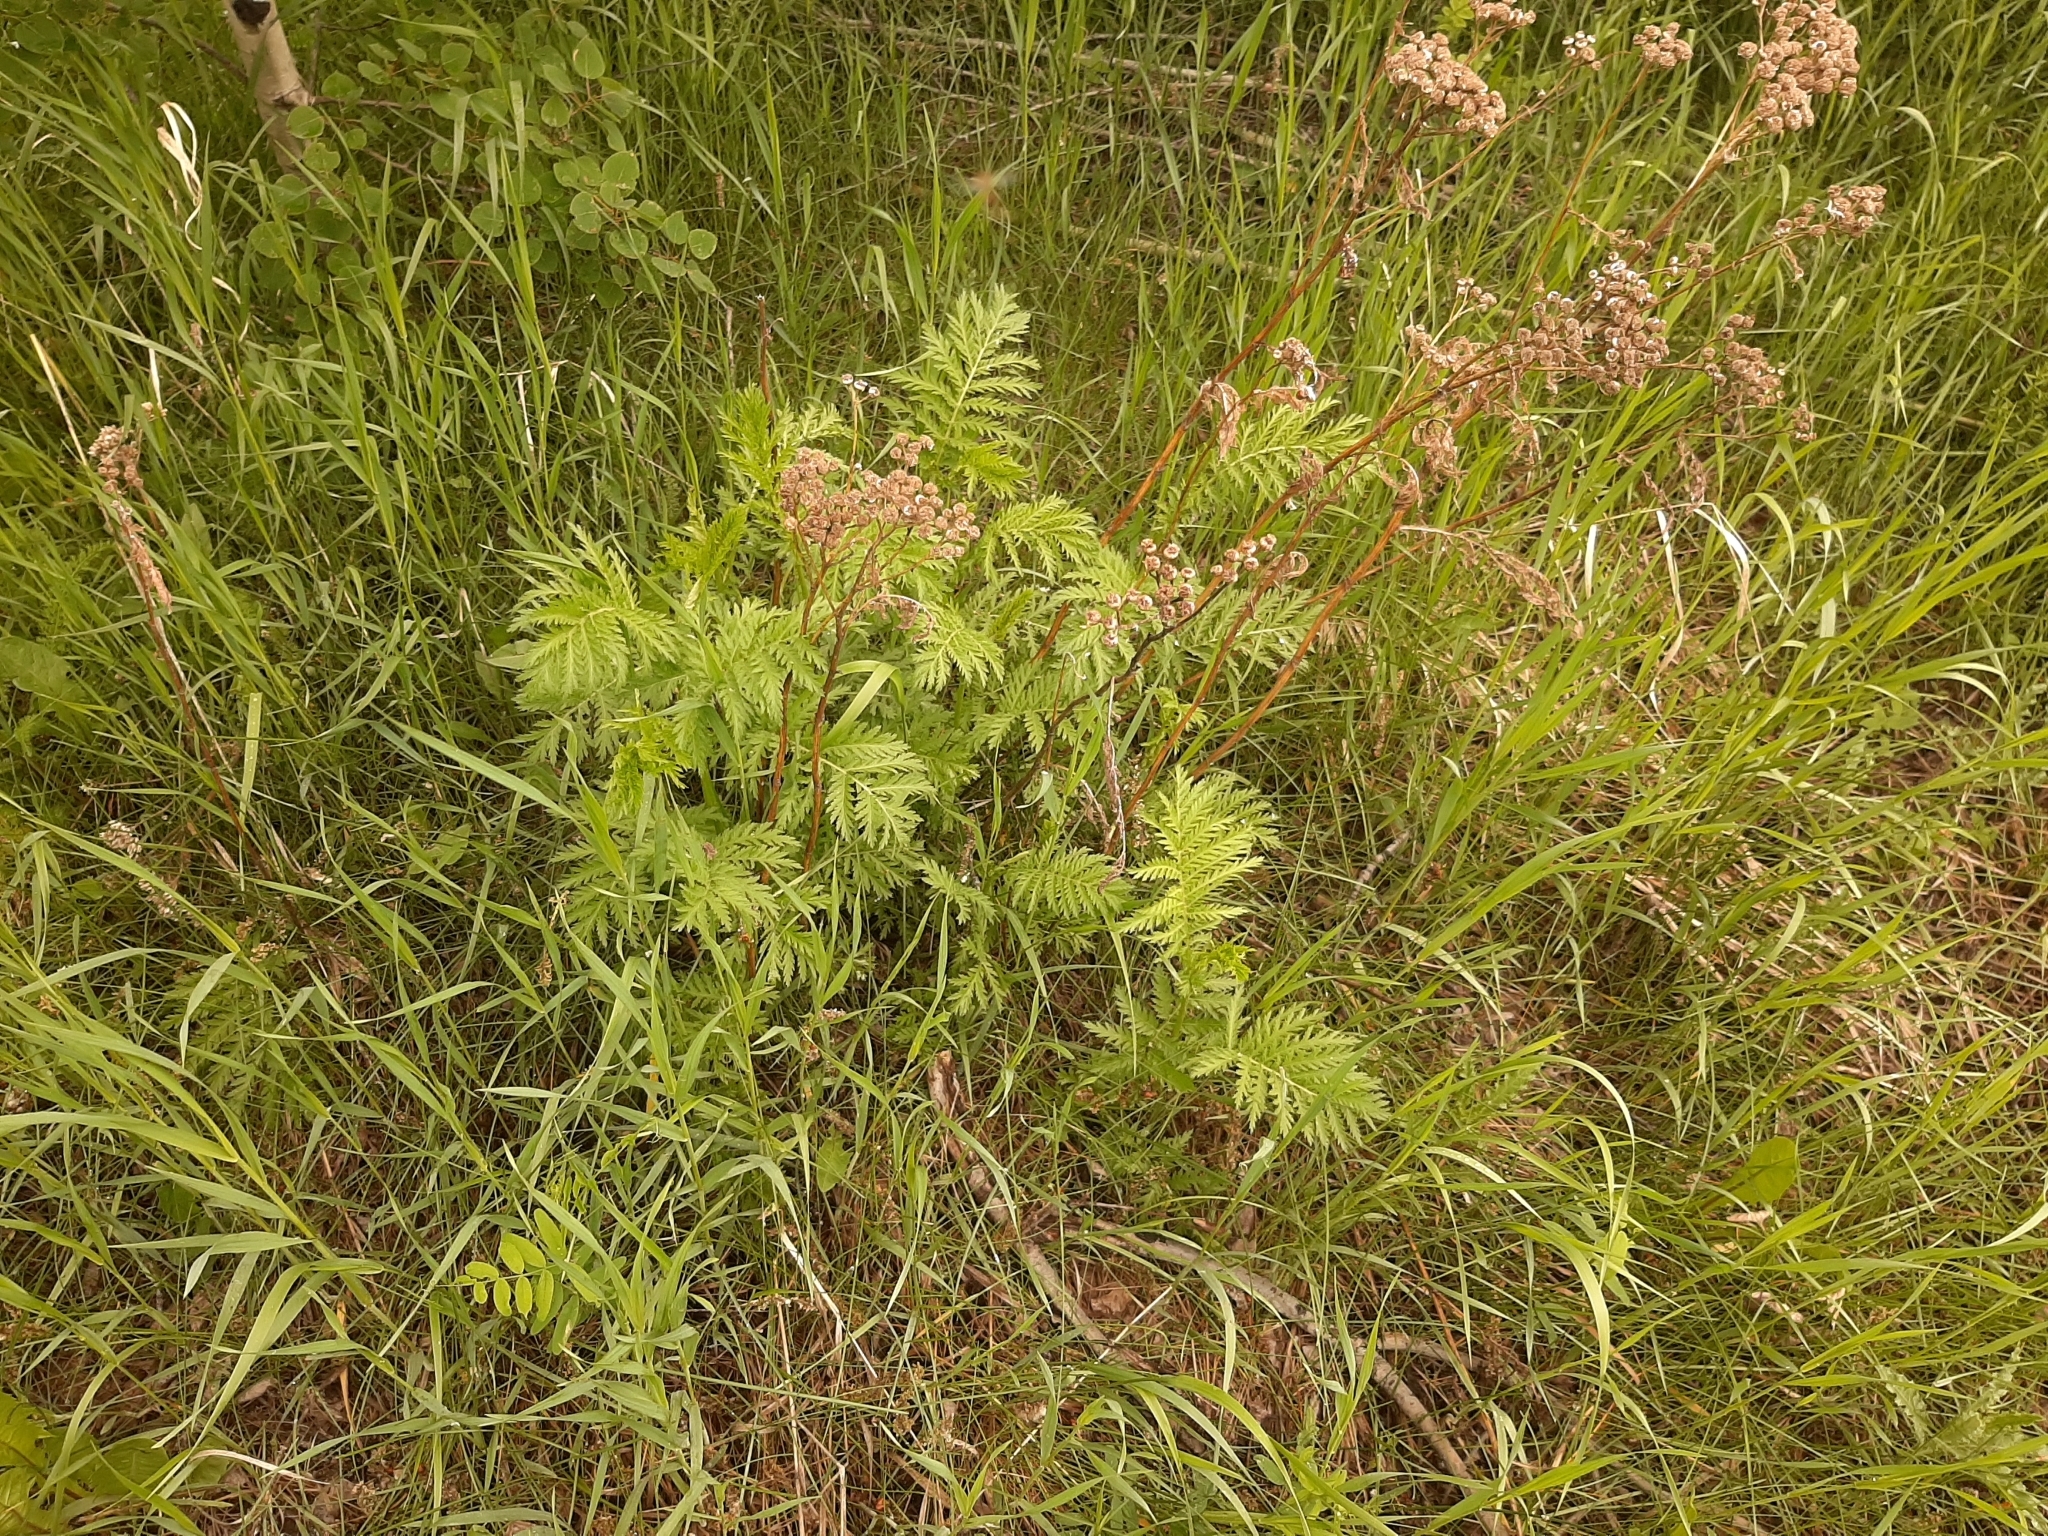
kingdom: Plantae
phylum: Tracheophyta
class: Magnoliopsida
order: Asterales
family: Asteraceae
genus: Tanacetum
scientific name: Tanacetum vulgare
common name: Common tansy
